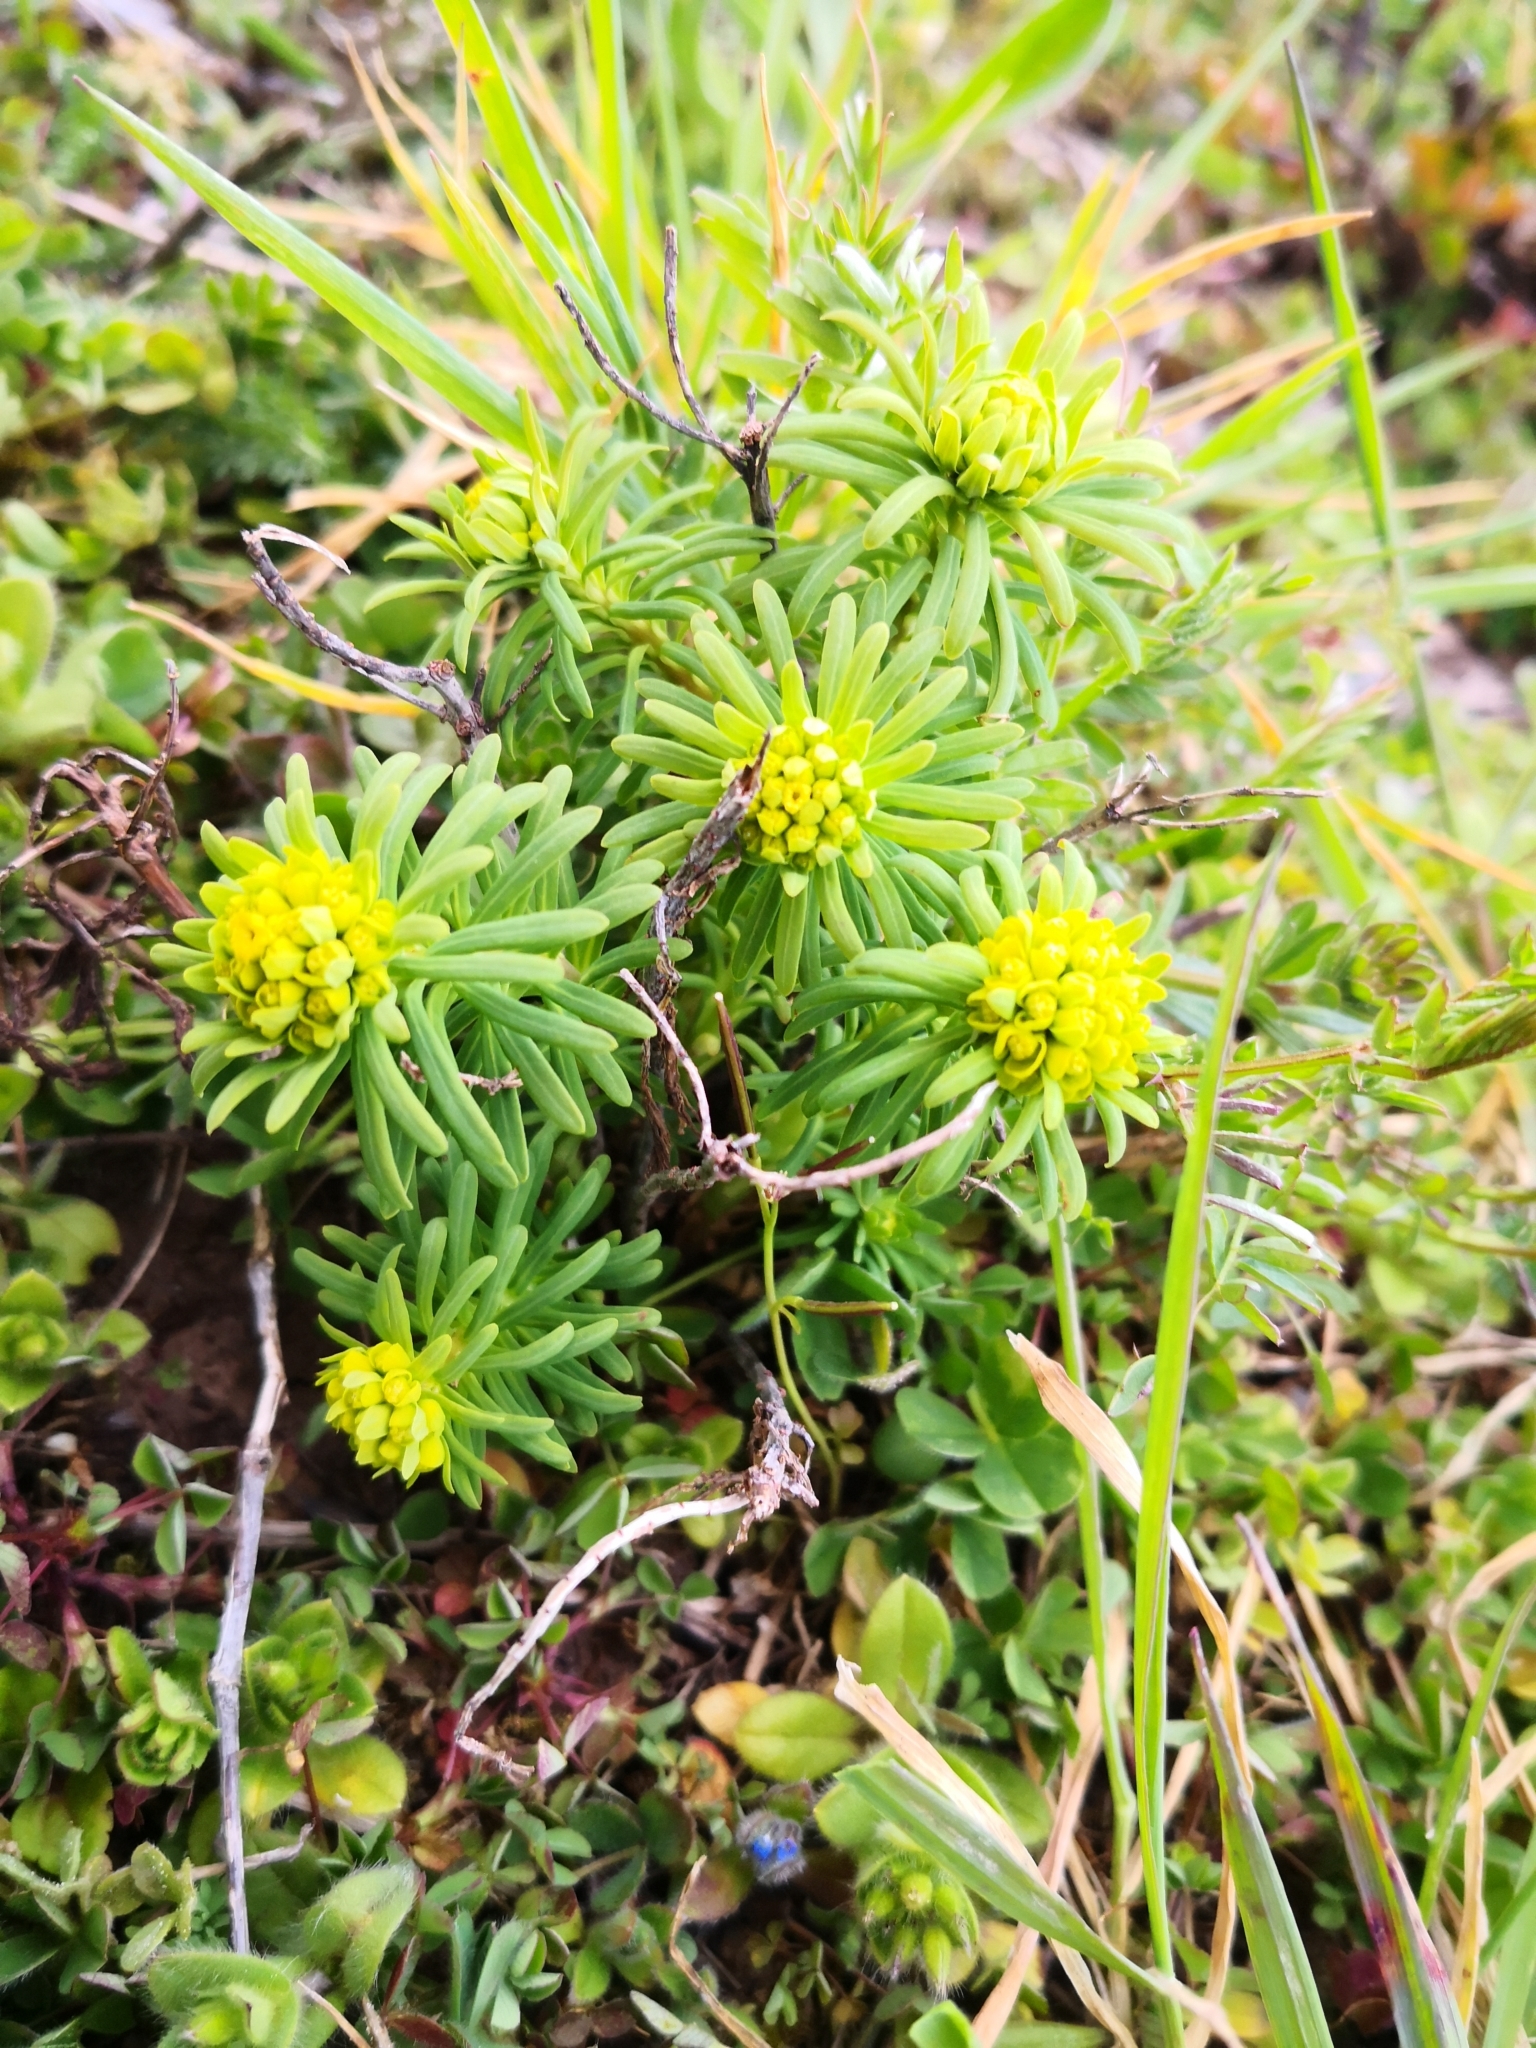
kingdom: Plantae
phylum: Tracheophyta
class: Magnoliopsida
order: Malpighiales
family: Euphorbiaceae
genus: Euphorbia
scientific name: Euphorbia cyparissias
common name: Cypress spurge
